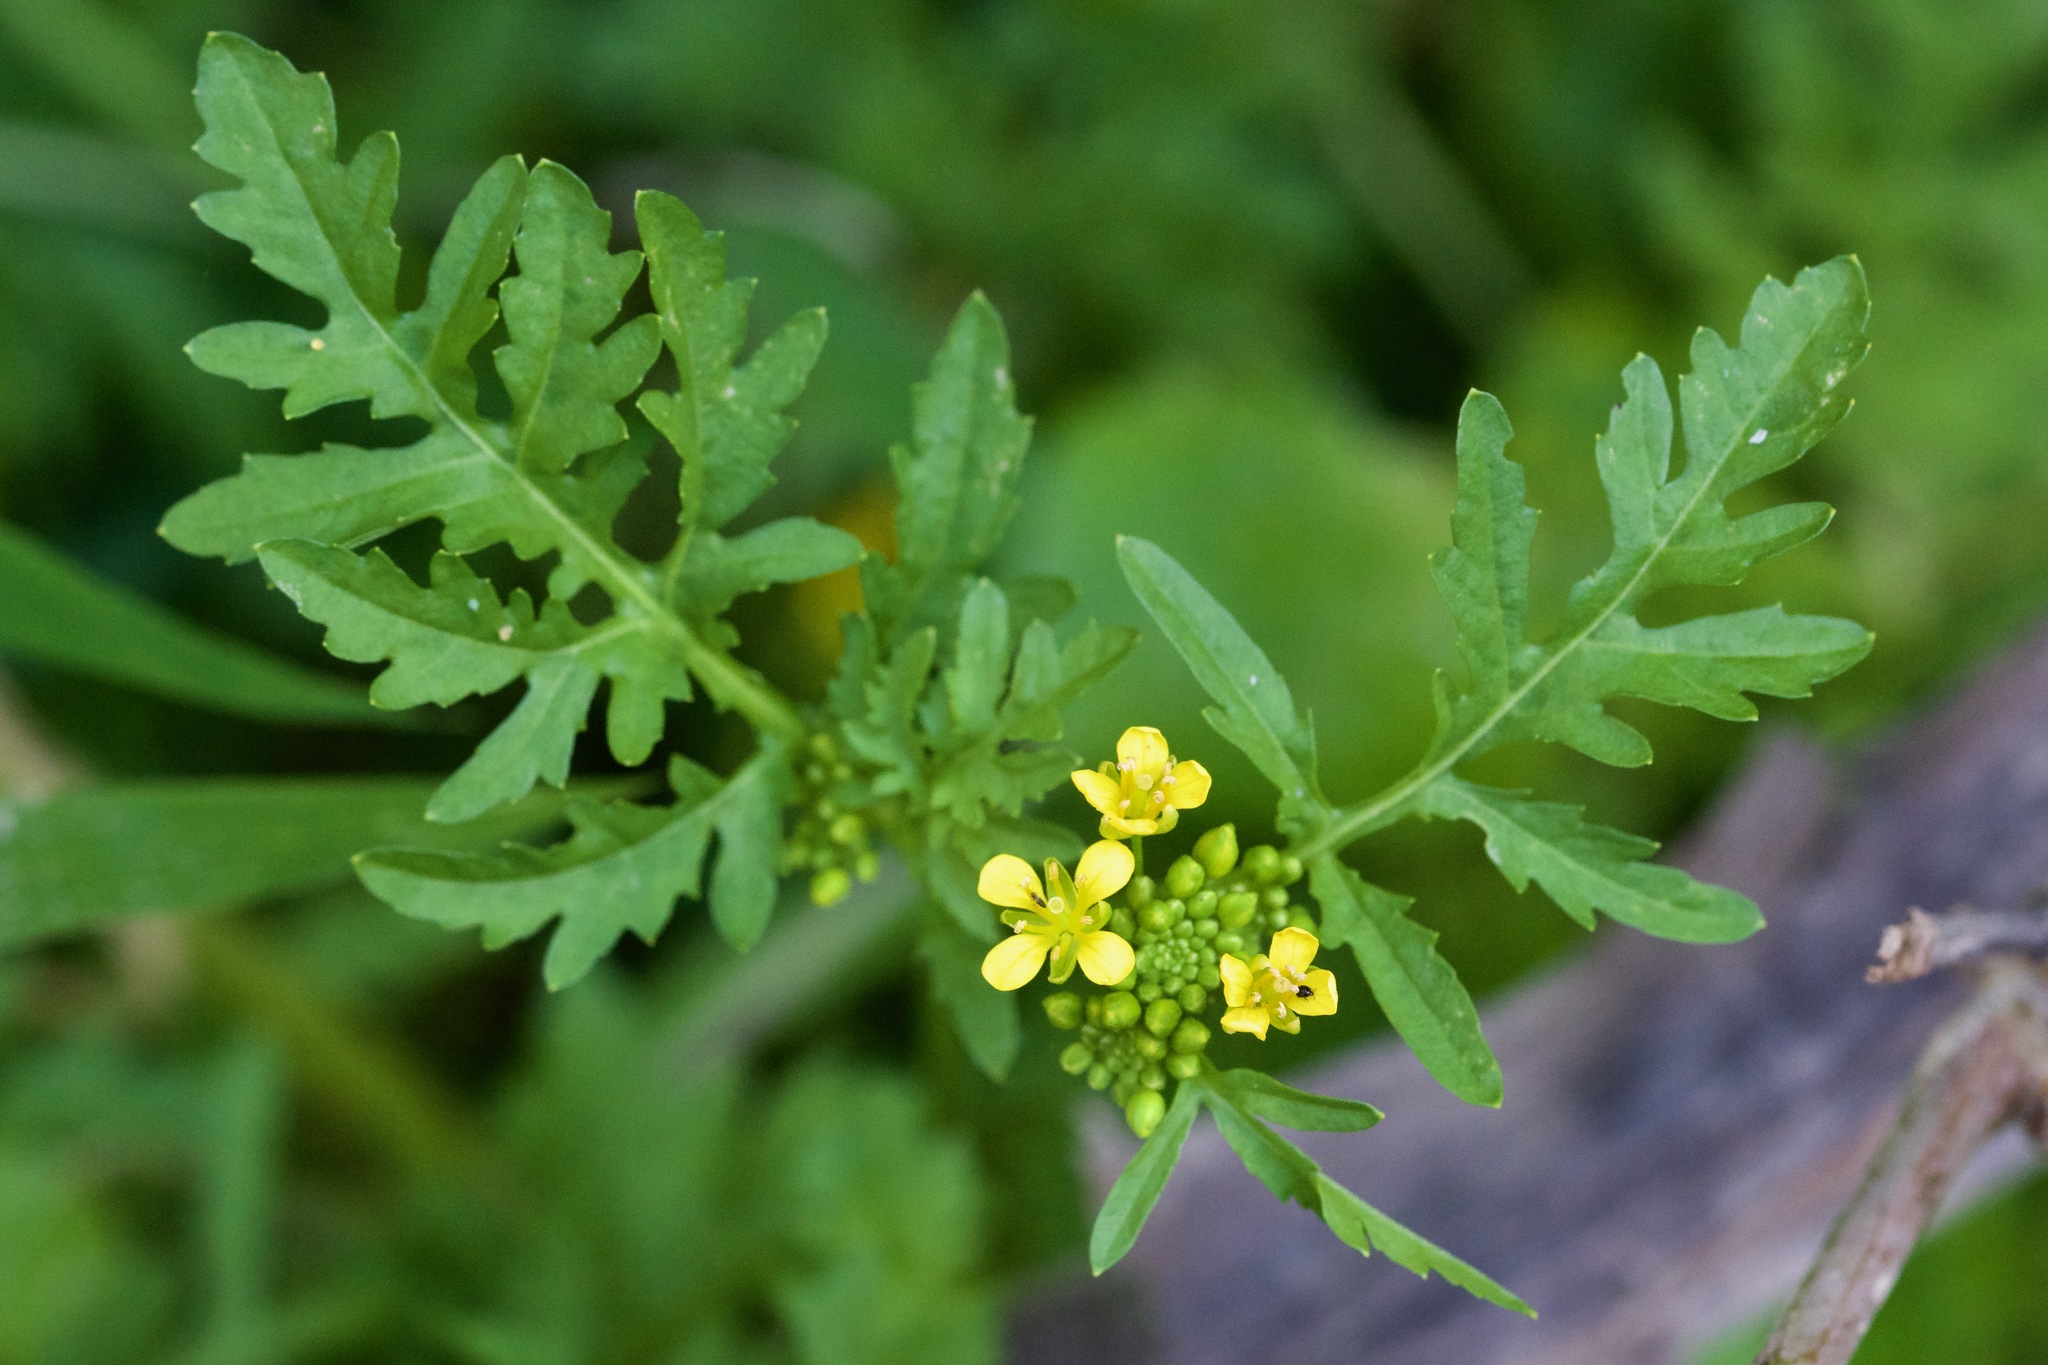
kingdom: Plantae
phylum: Tracheophyta
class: Magnoliopsida
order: Brassicales
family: Brassicaceae
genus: Rorippa
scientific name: Rorippa sylvestris
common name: Creeping yellowcress
